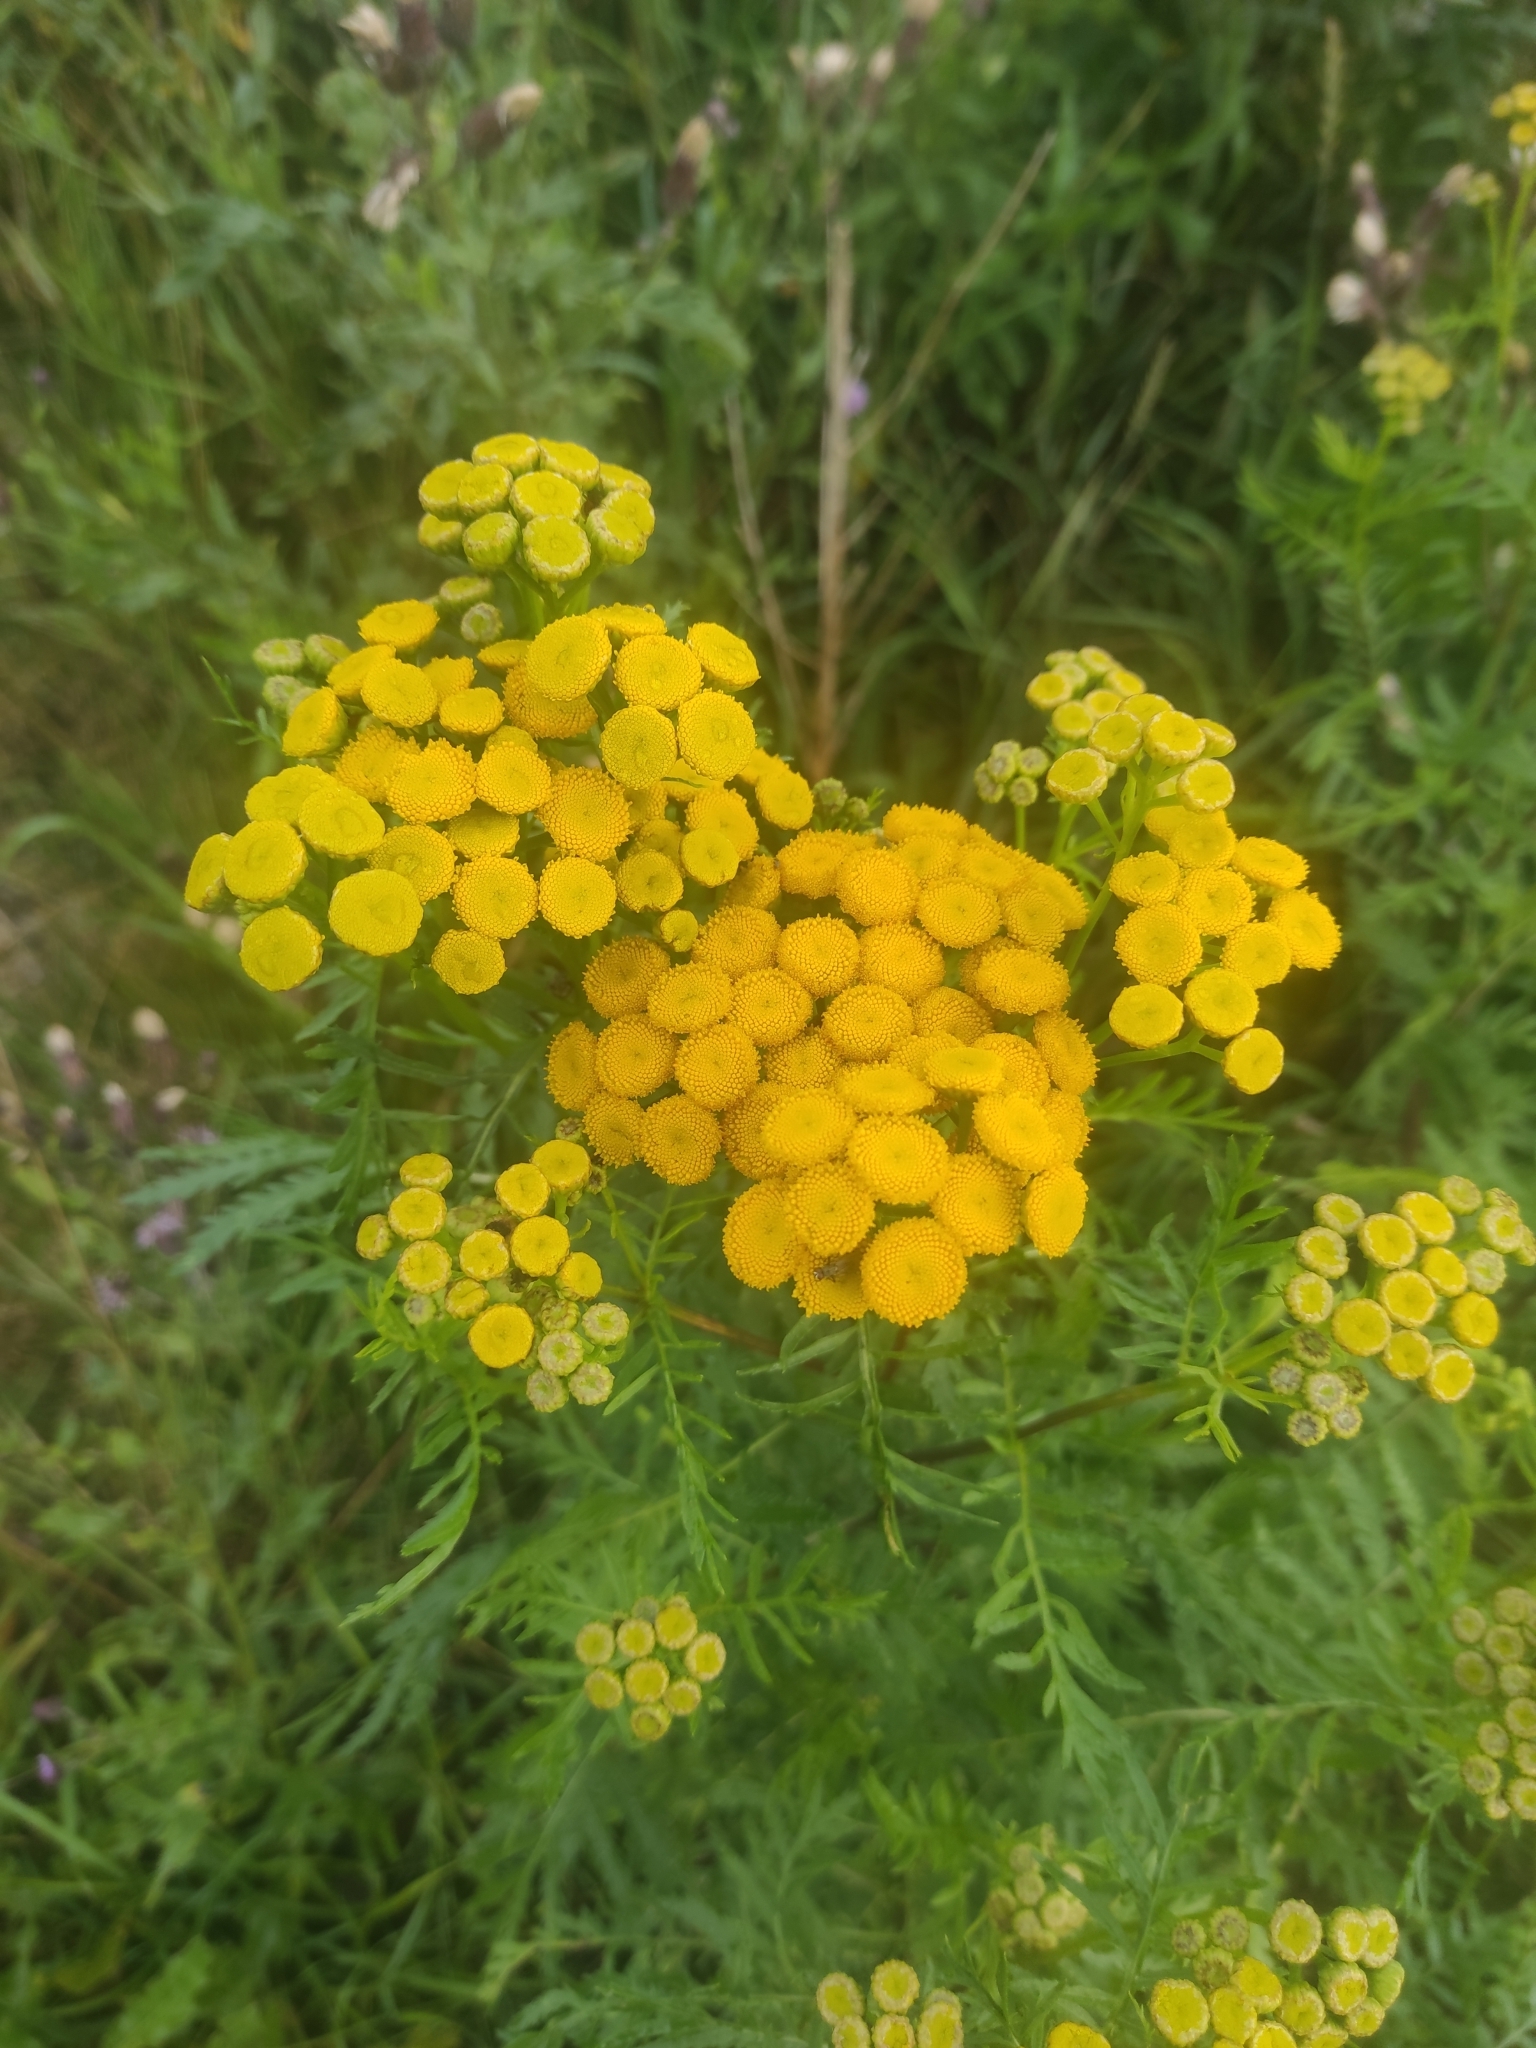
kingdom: Plantae
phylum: Tracheophyta
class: Magnoliopsida
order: Asterales
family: Asteraceae
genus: Tanacetum
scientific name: Tanacetum vulgare
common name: Common tansy
